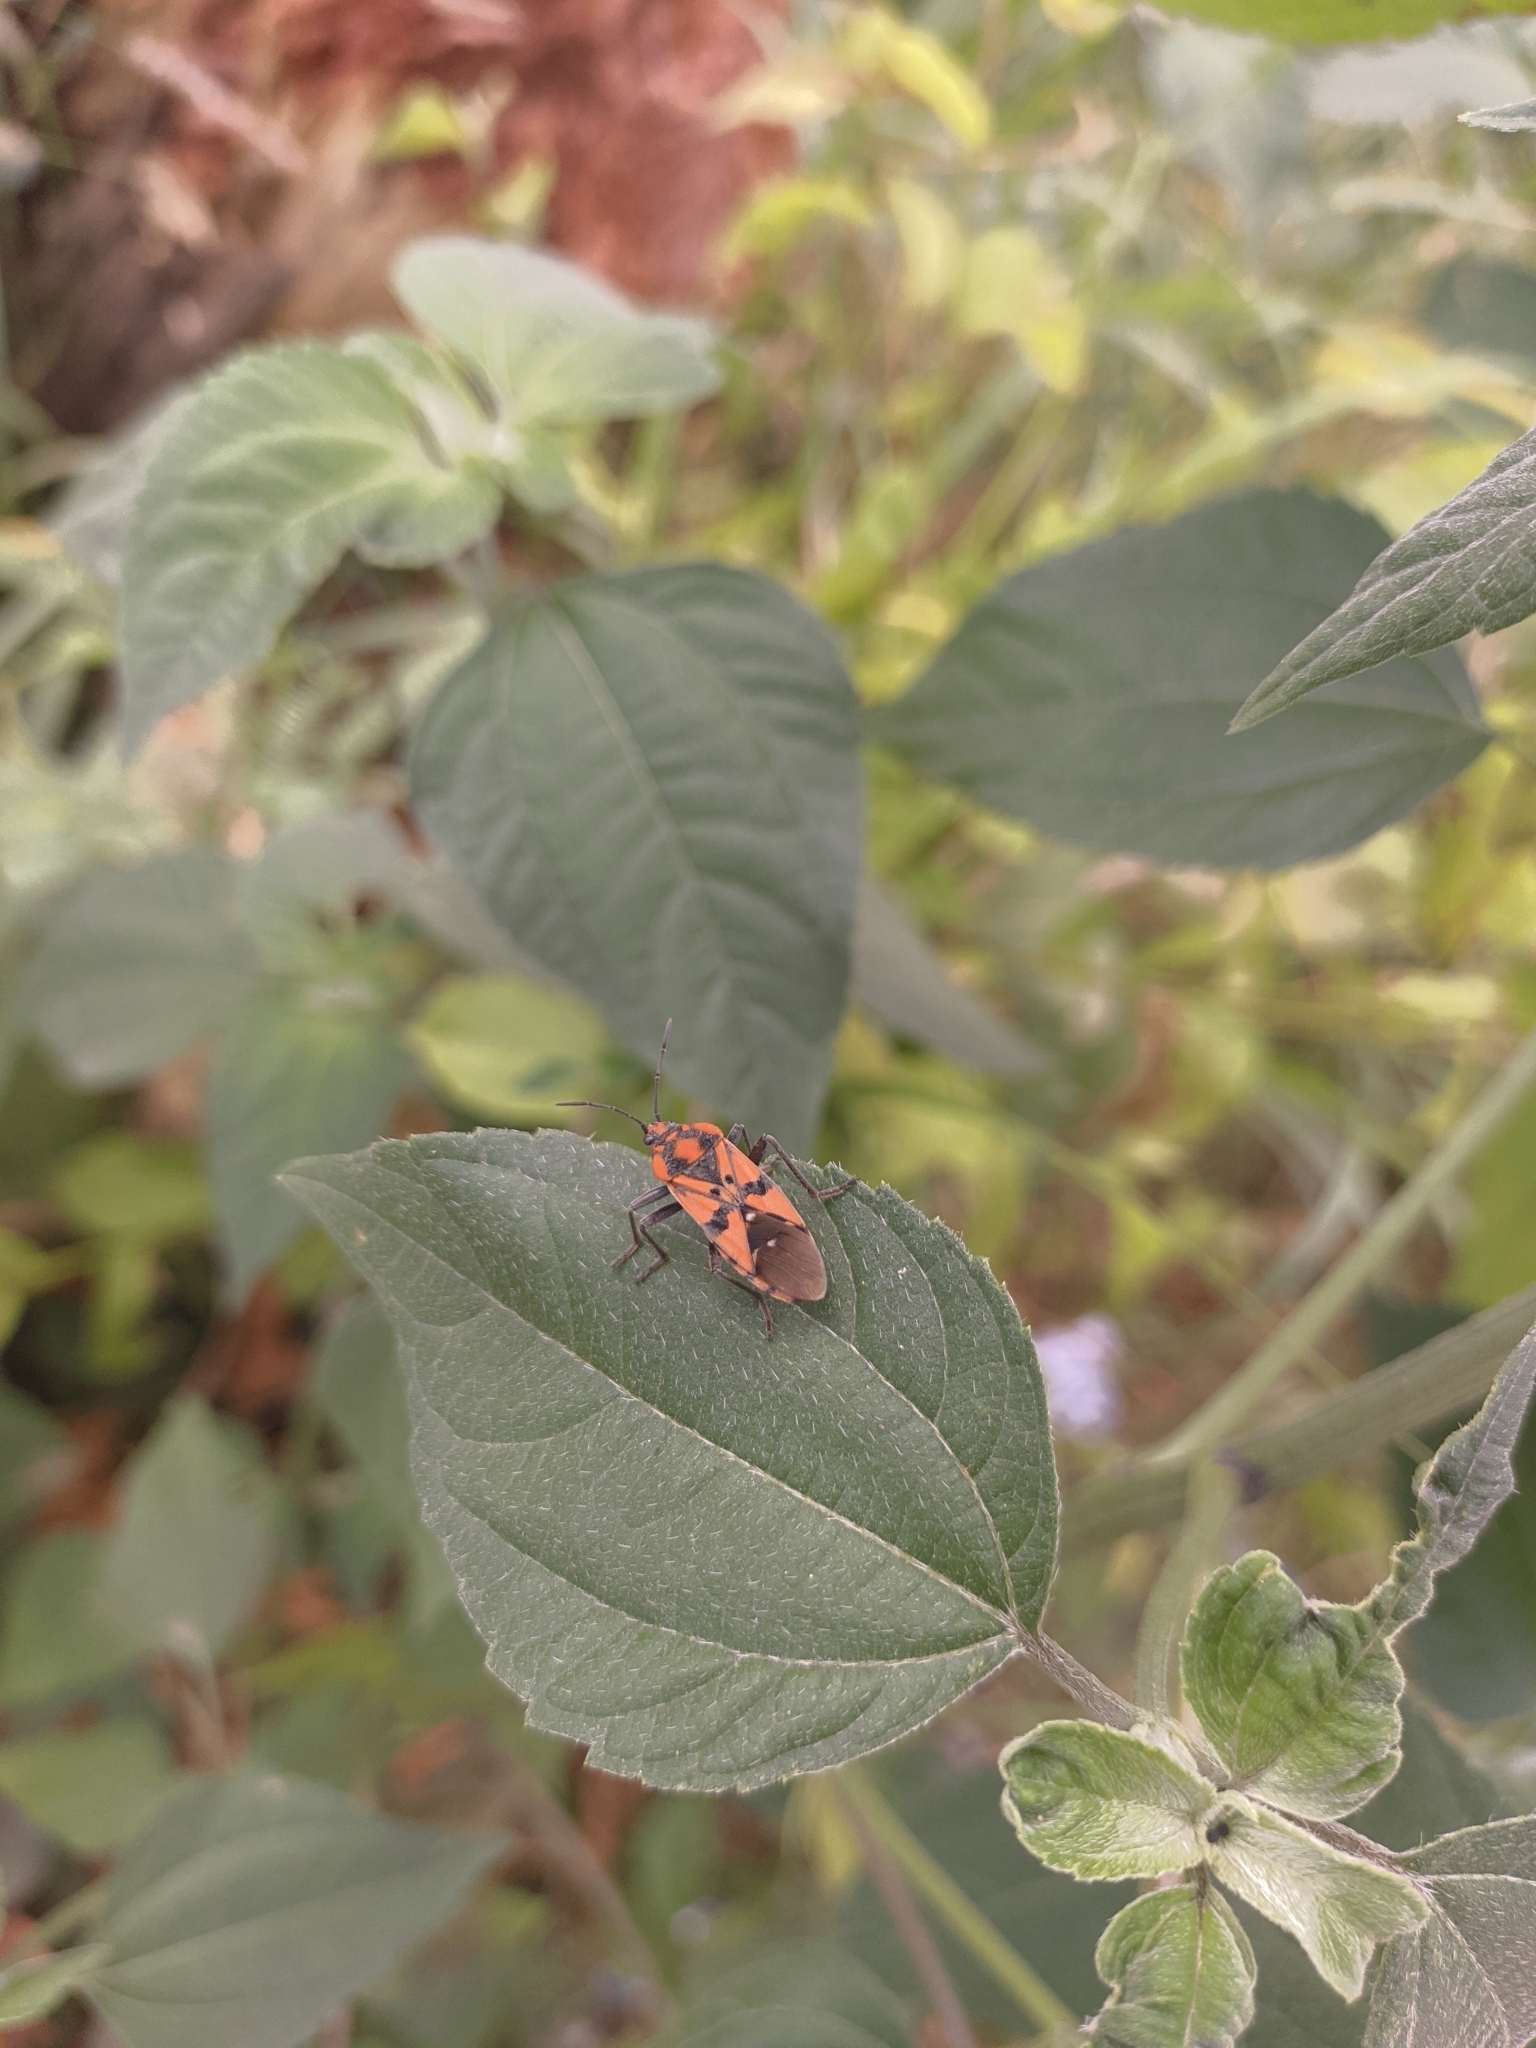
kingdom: Animalia
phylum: Arthropoda
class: Insecta
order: Hemiptera
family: Lygaeidae
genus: Spilostethus
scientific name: Spilostethus pandurus
